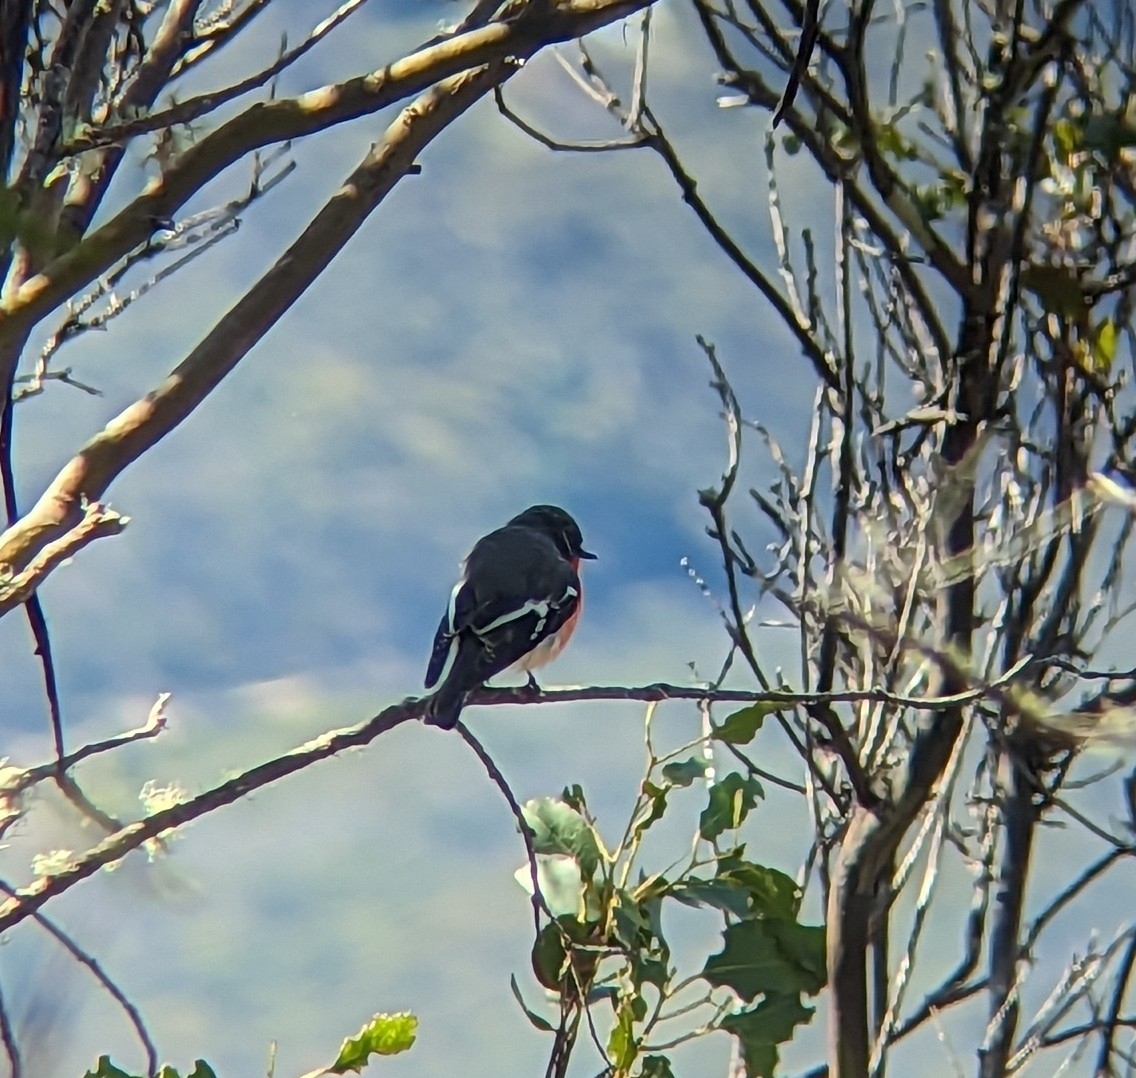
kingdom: Animalia
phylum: Chordata
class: Aves
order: Passeriformes
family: Petroicidae
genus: Petroica
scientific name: Petroica phoenicea
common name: Flame robin
